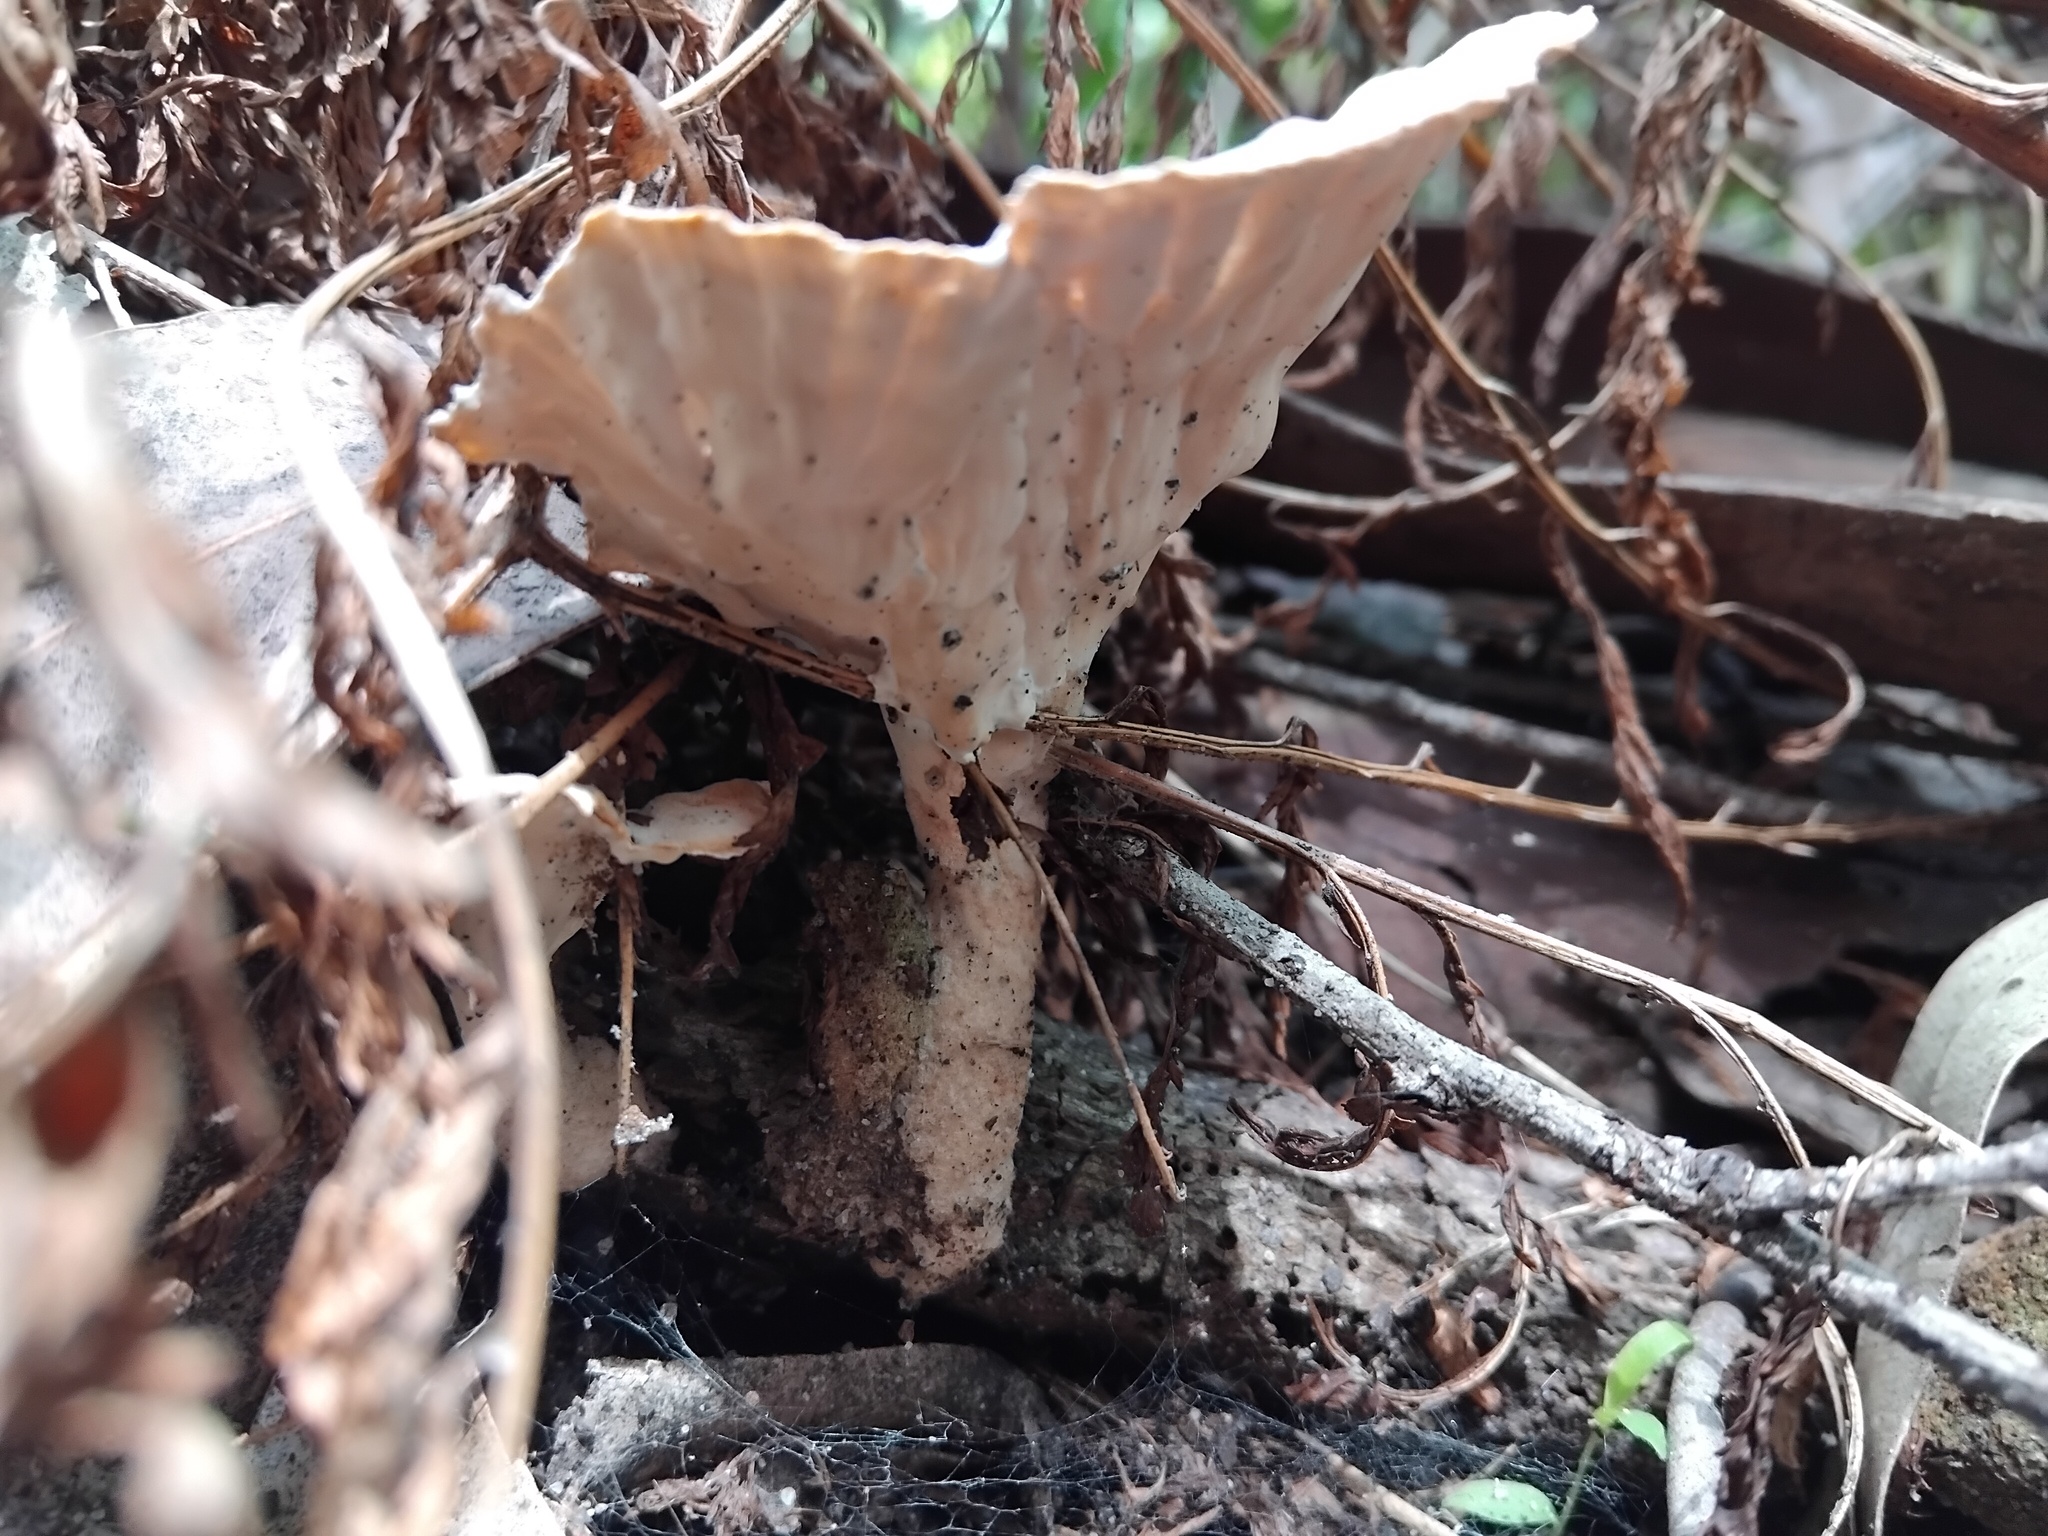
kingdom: Fungi
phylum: Basidiomycota
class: Agaricomycetes
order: Polyporales
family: Panaceae
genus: Cymatoderma
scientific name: Cymatoderma elegans
